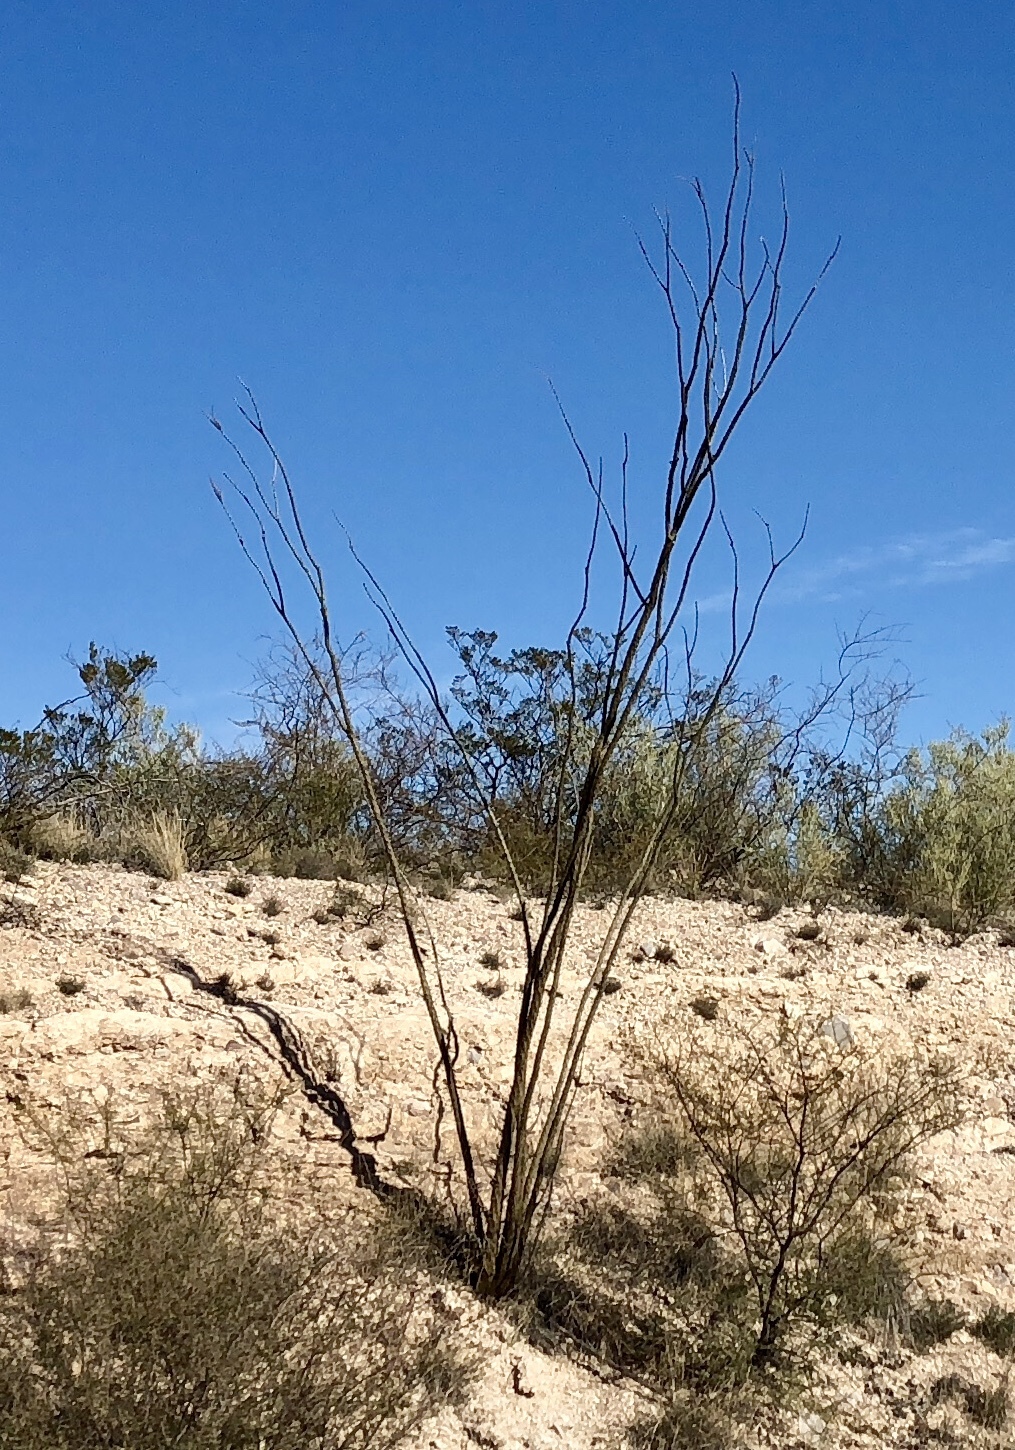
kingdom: Plantae
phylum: Tracheophyta
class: Magnoliopsida
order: Ericales
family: Fouquieriaceae
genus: Fouquieria
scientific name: Fouquieria splendens
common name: Vine-cactus
